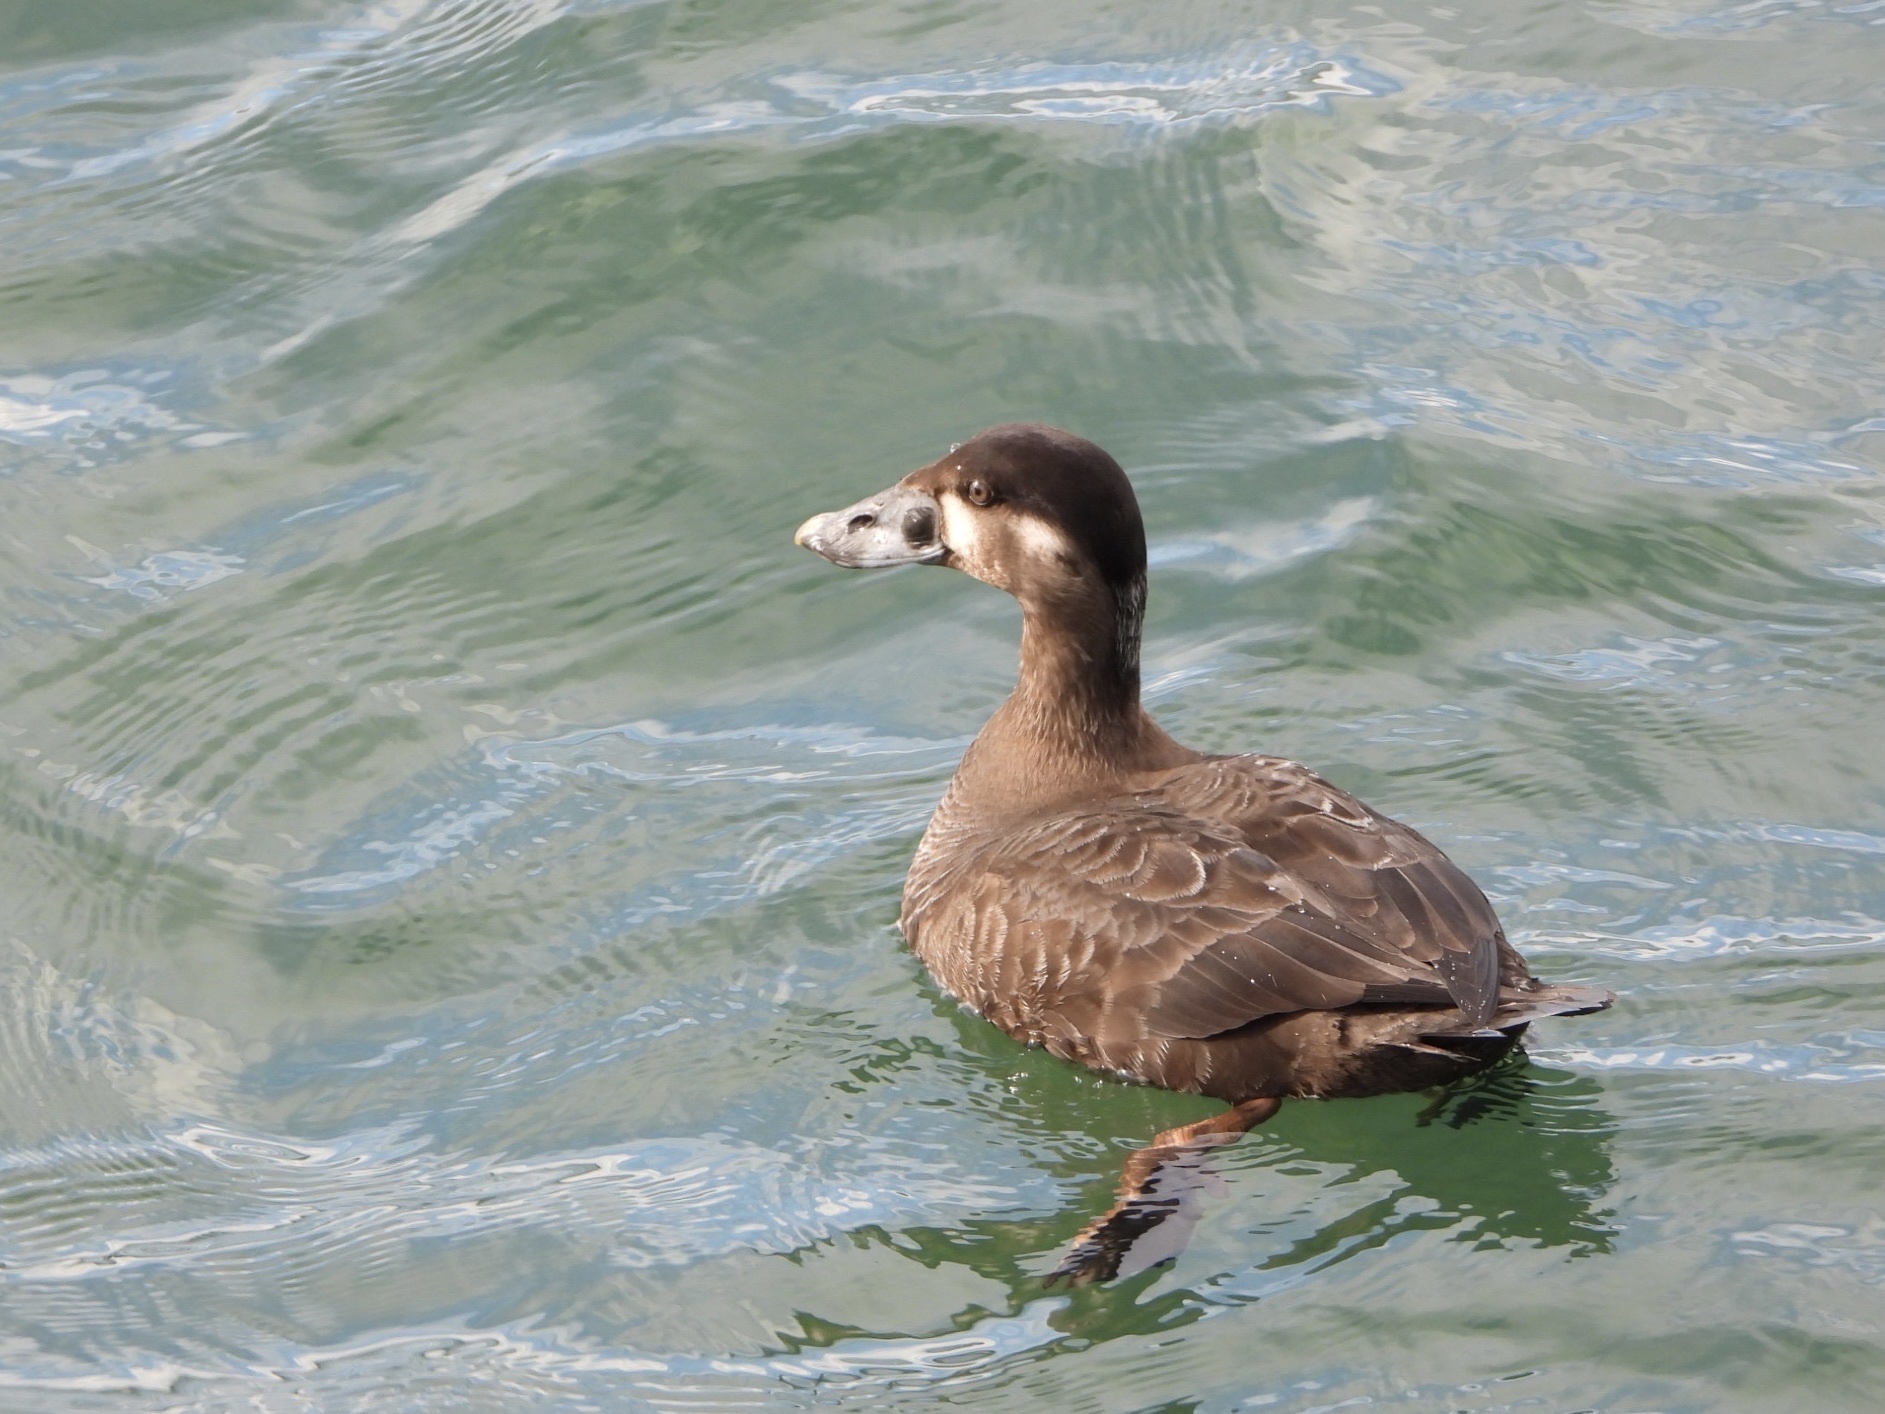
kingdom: Animalia
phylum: Chordata
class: Aves
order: Anseriformes
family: Anatidae
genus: Melanitta
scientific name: Melanitta perspicillata
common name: Surf scoter
